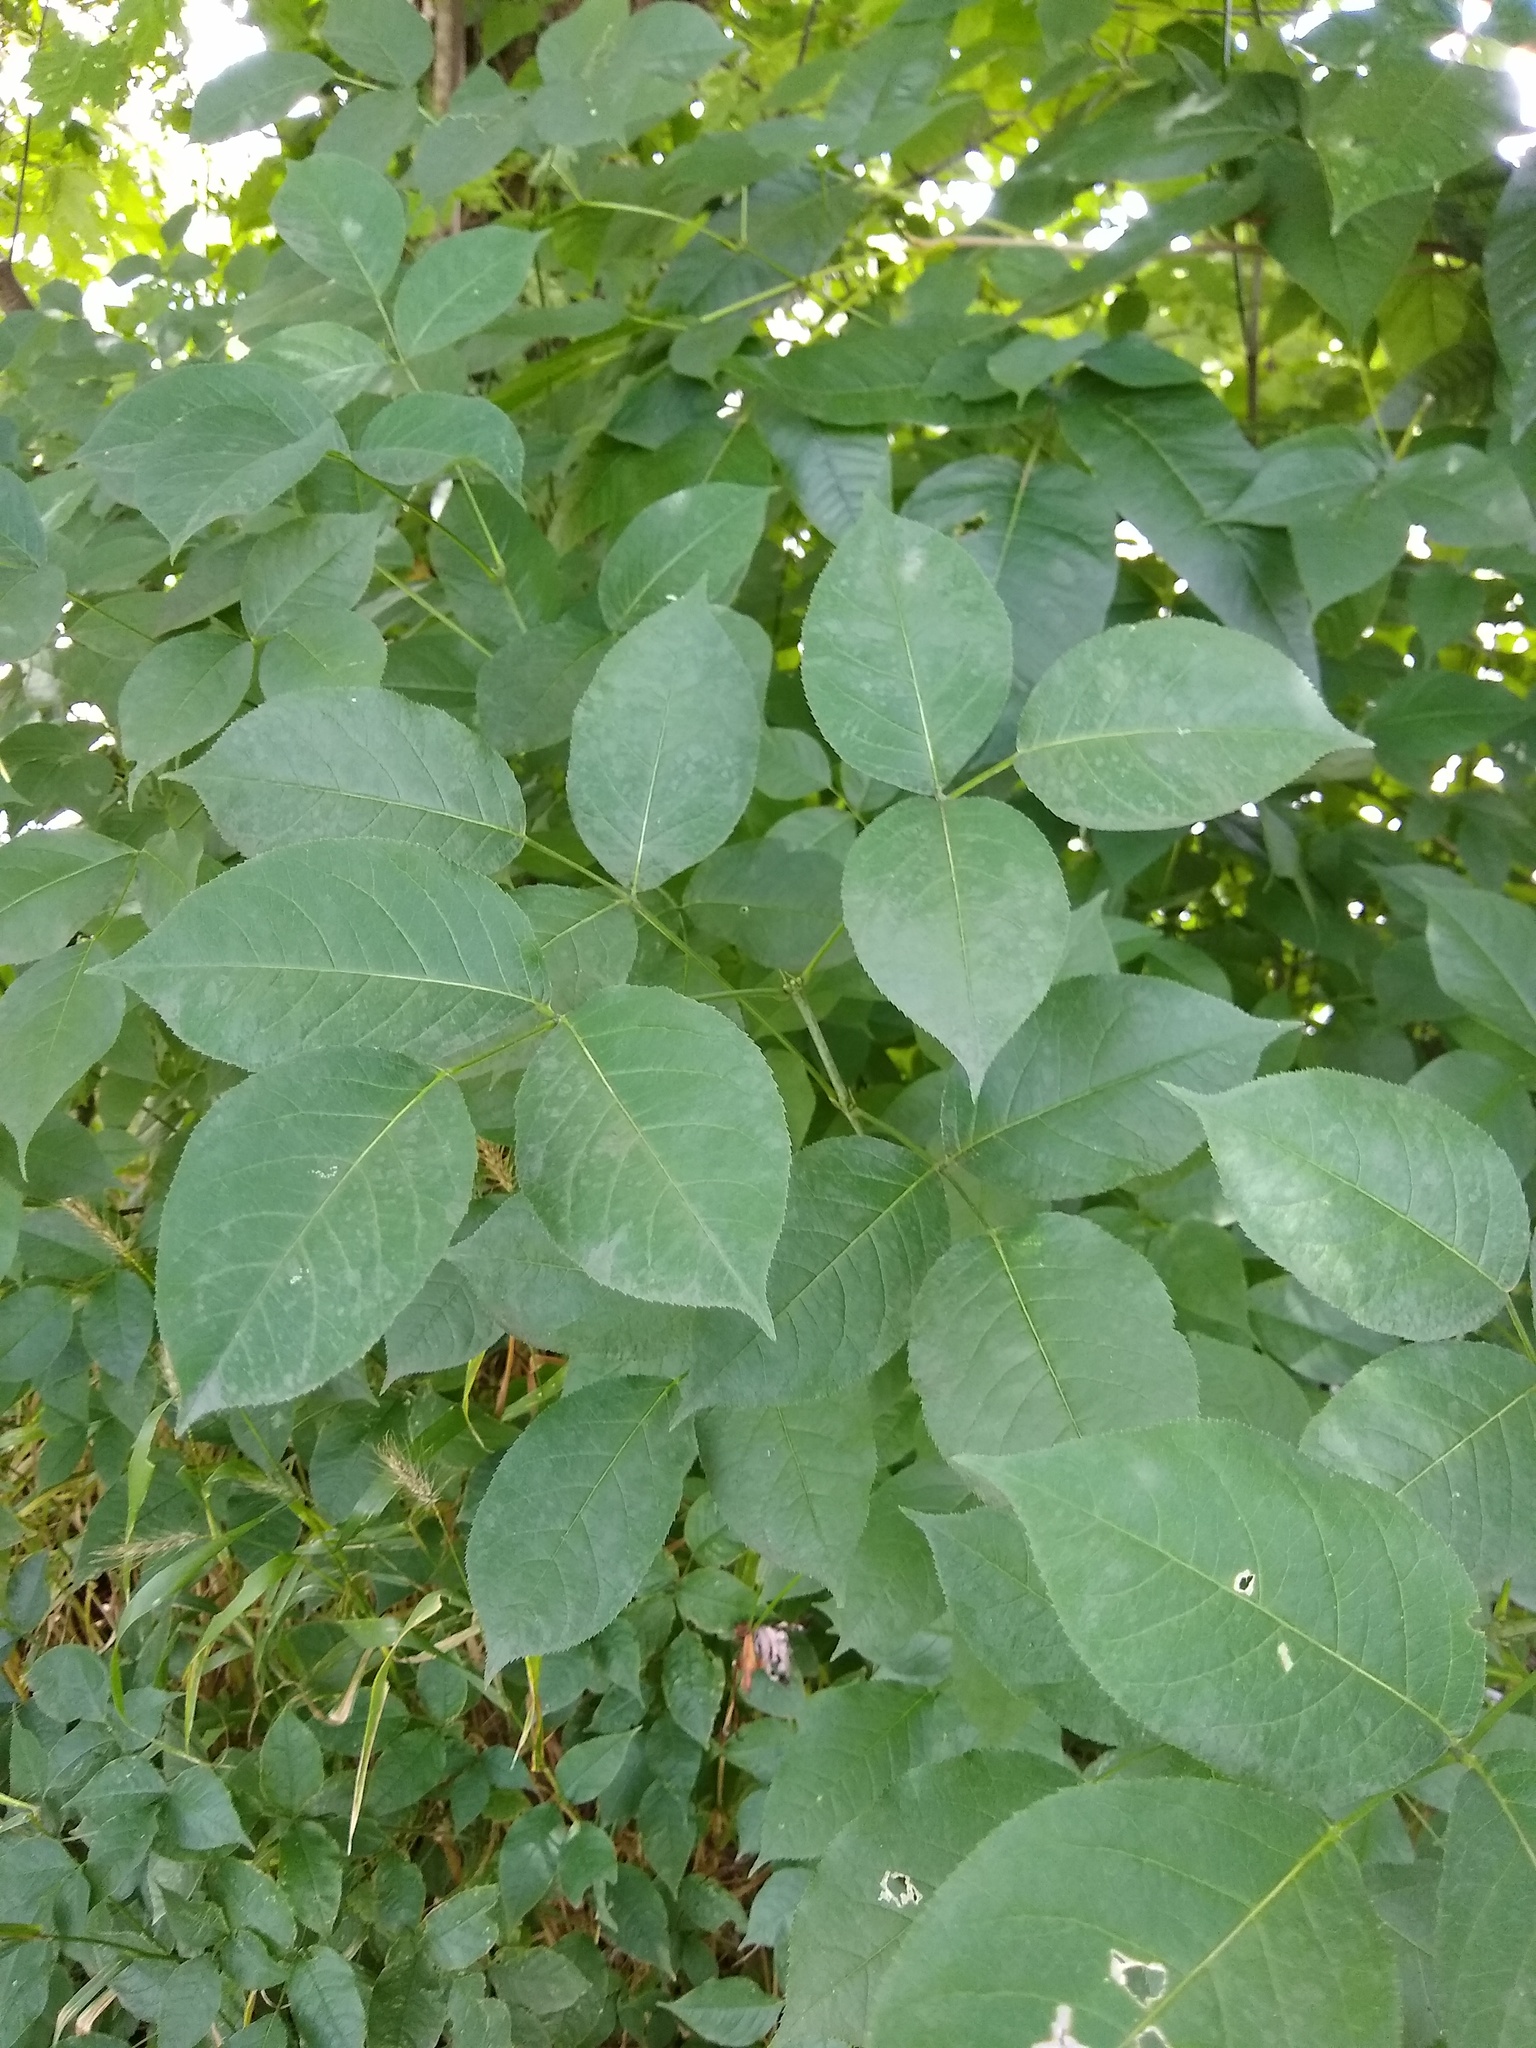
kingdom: Plantae
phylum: Tracheophyta
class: Magnoliopsida
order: Crossosomatales
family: Staphyleaceae
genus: Staphylea
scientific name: Staphylea trifolia
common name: American bladdernut
